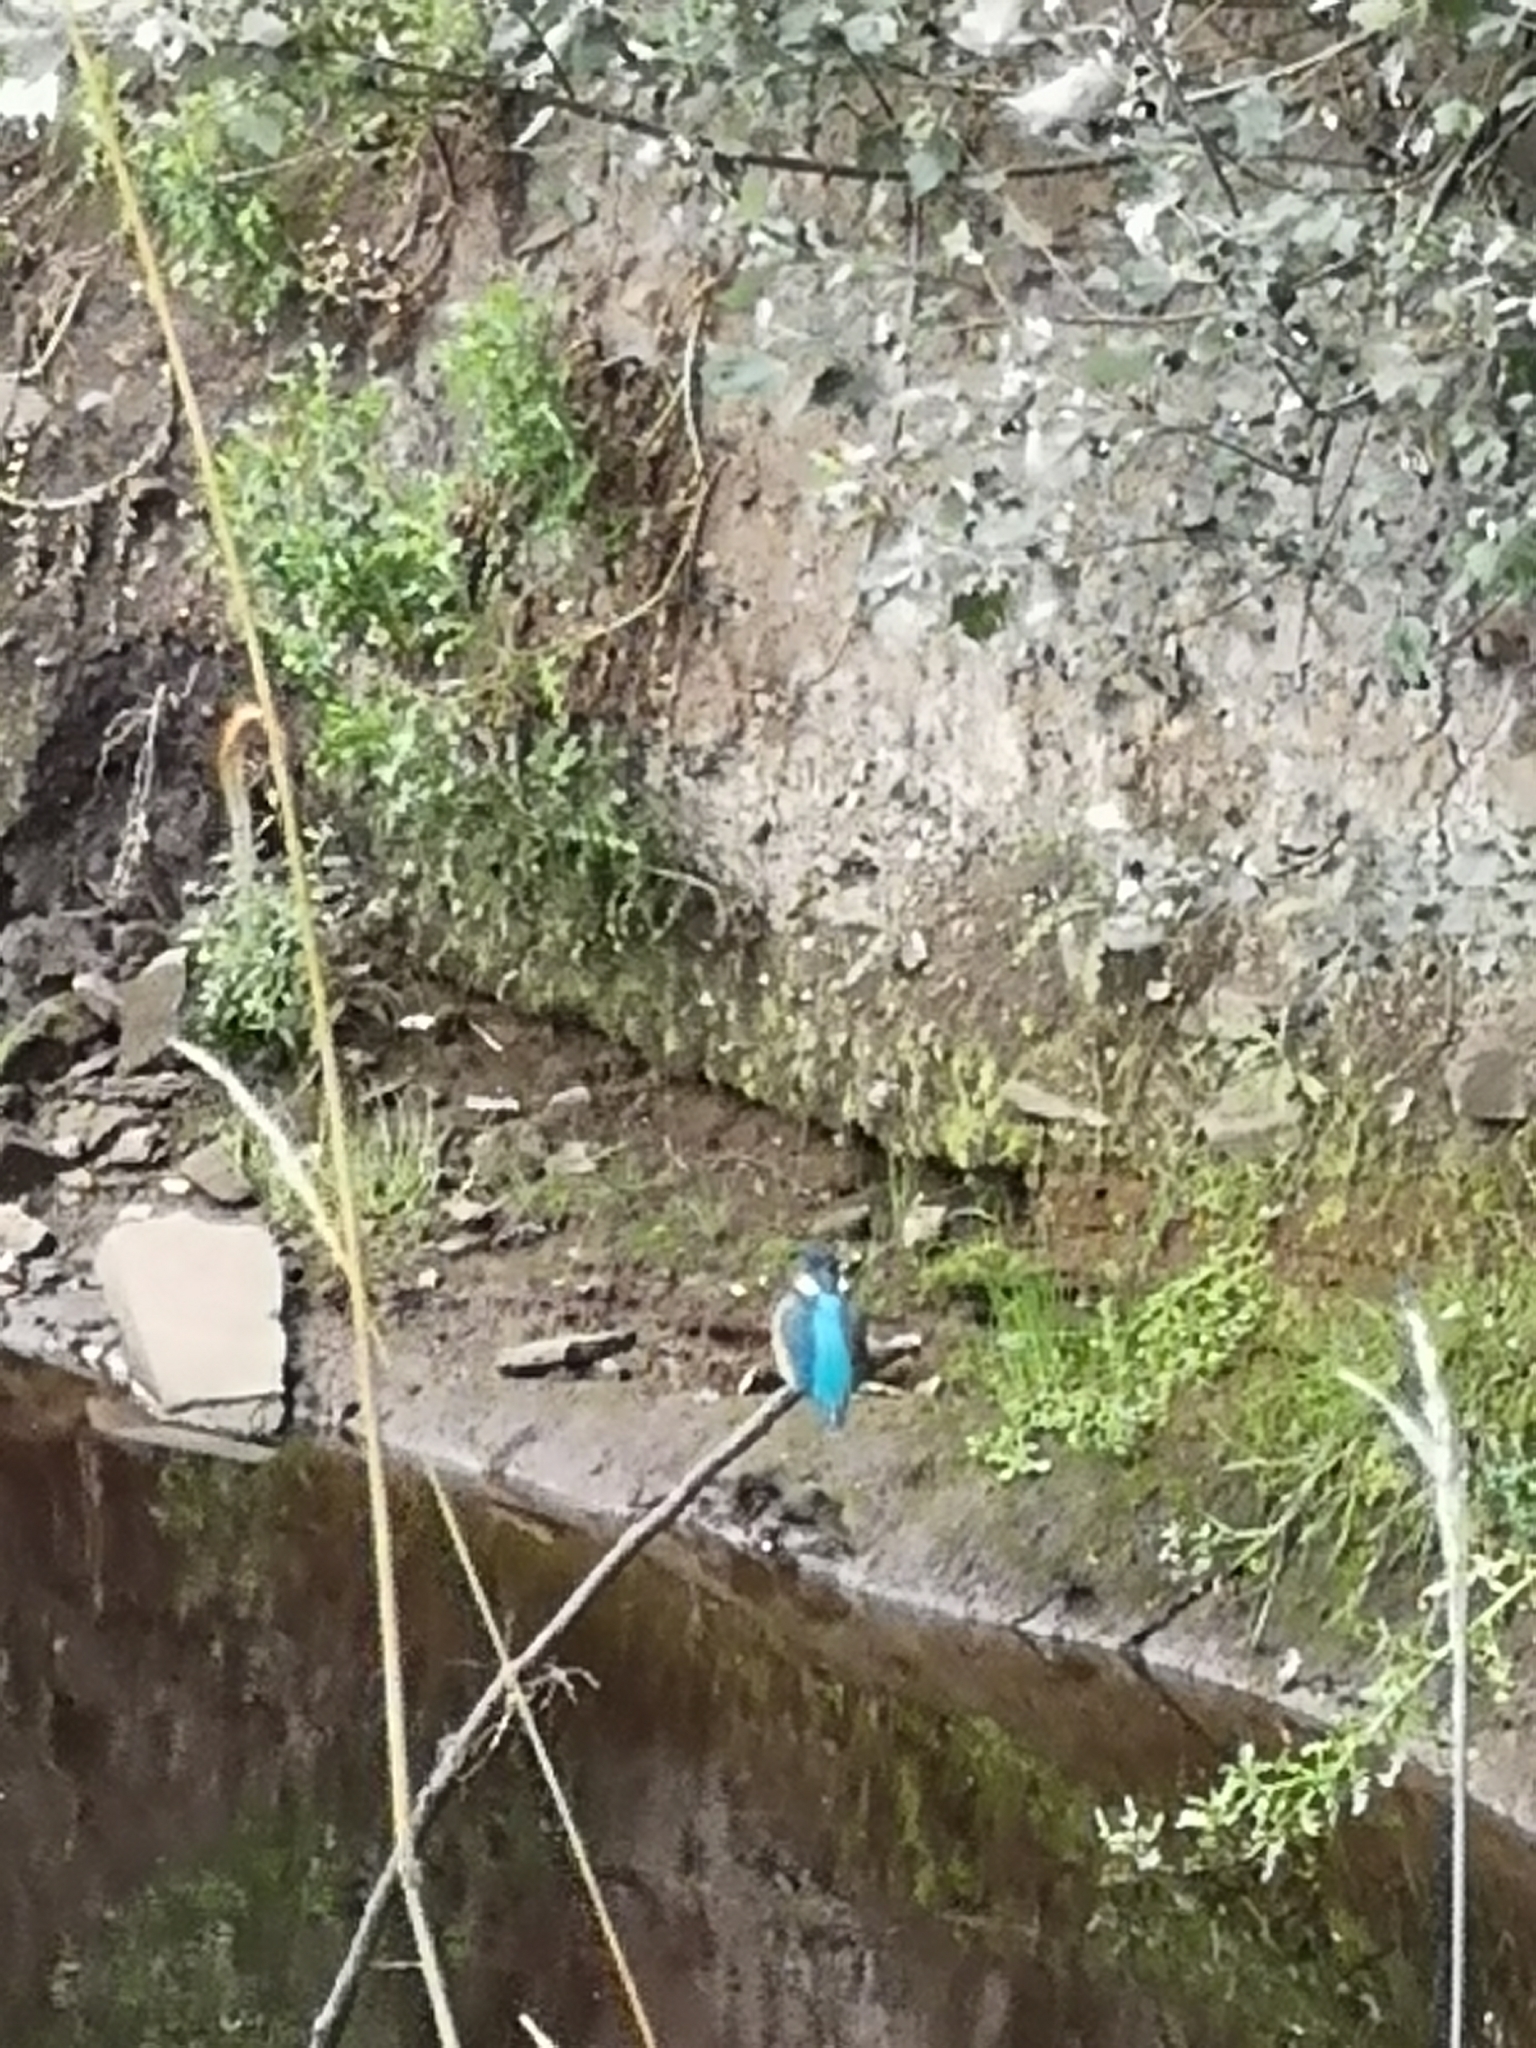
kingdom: Animalia
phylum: Chordata
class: Aves
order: Coraciiformes
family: Alcedinidae
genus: Alcedo
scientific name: Alcedo atthis
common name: Common kingfisher
